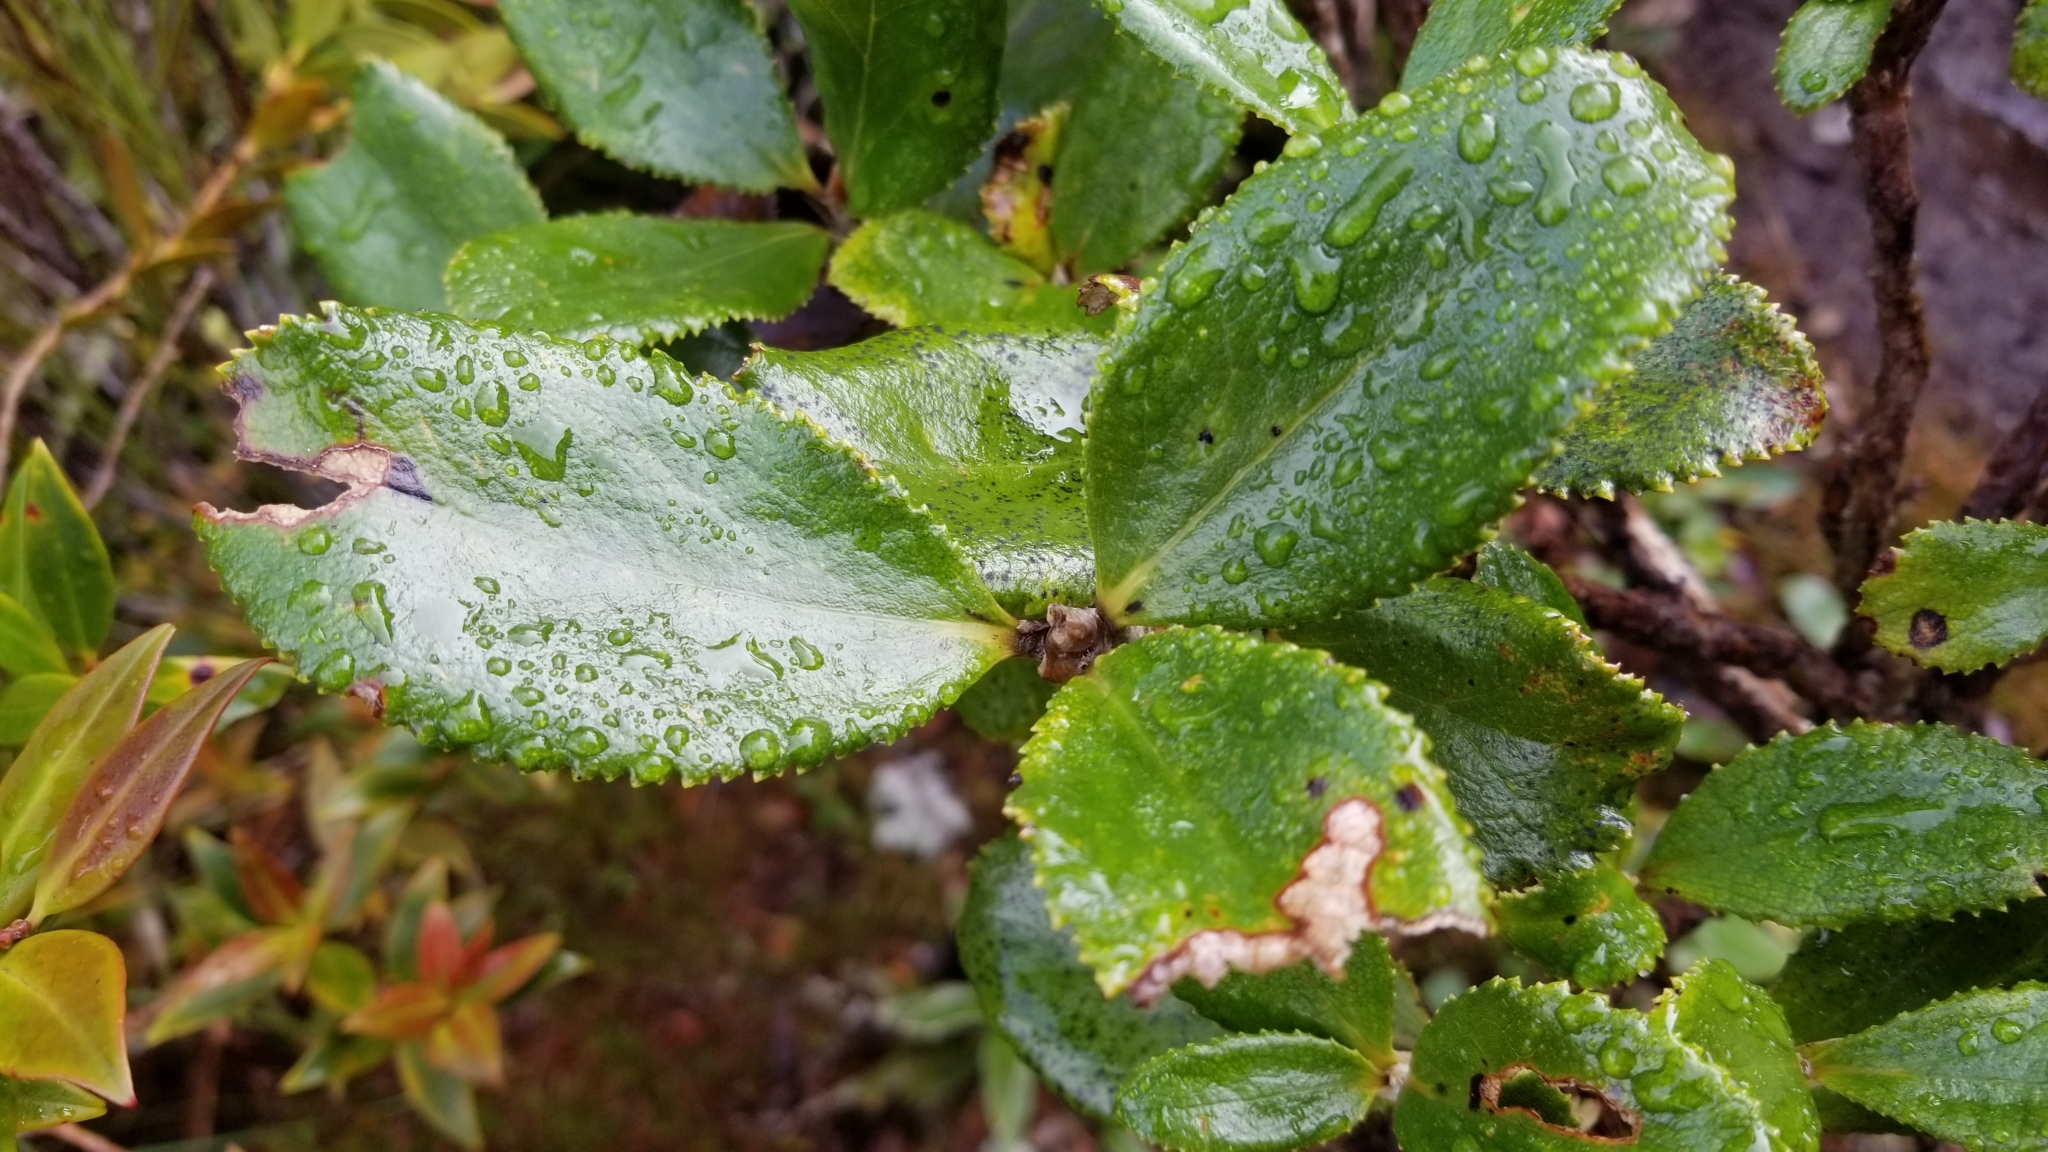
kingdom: Plantae
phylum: Tracheophyta
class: Magnoliopsida
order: Asterales
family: Asteraceae
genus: Macrolearia
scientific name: Macrolearia colensoi
